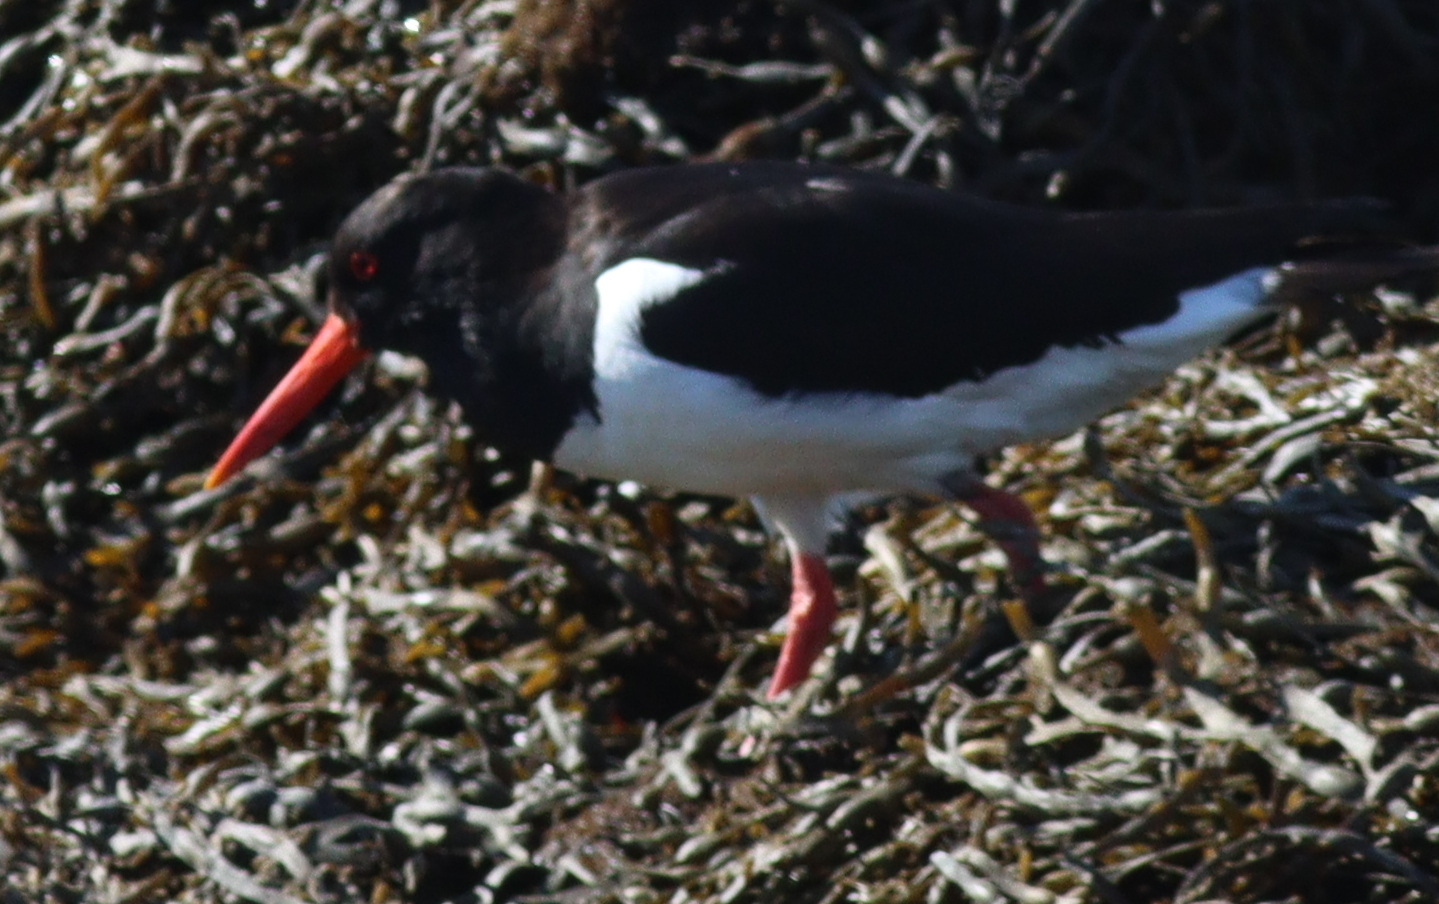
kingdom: Animalia
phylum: Chordata
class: Aves
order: Charadriiformes
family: Haematopodidae
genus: Haematopus
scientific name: Haematopus ostralegus
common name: Eurasian oystercatcher
